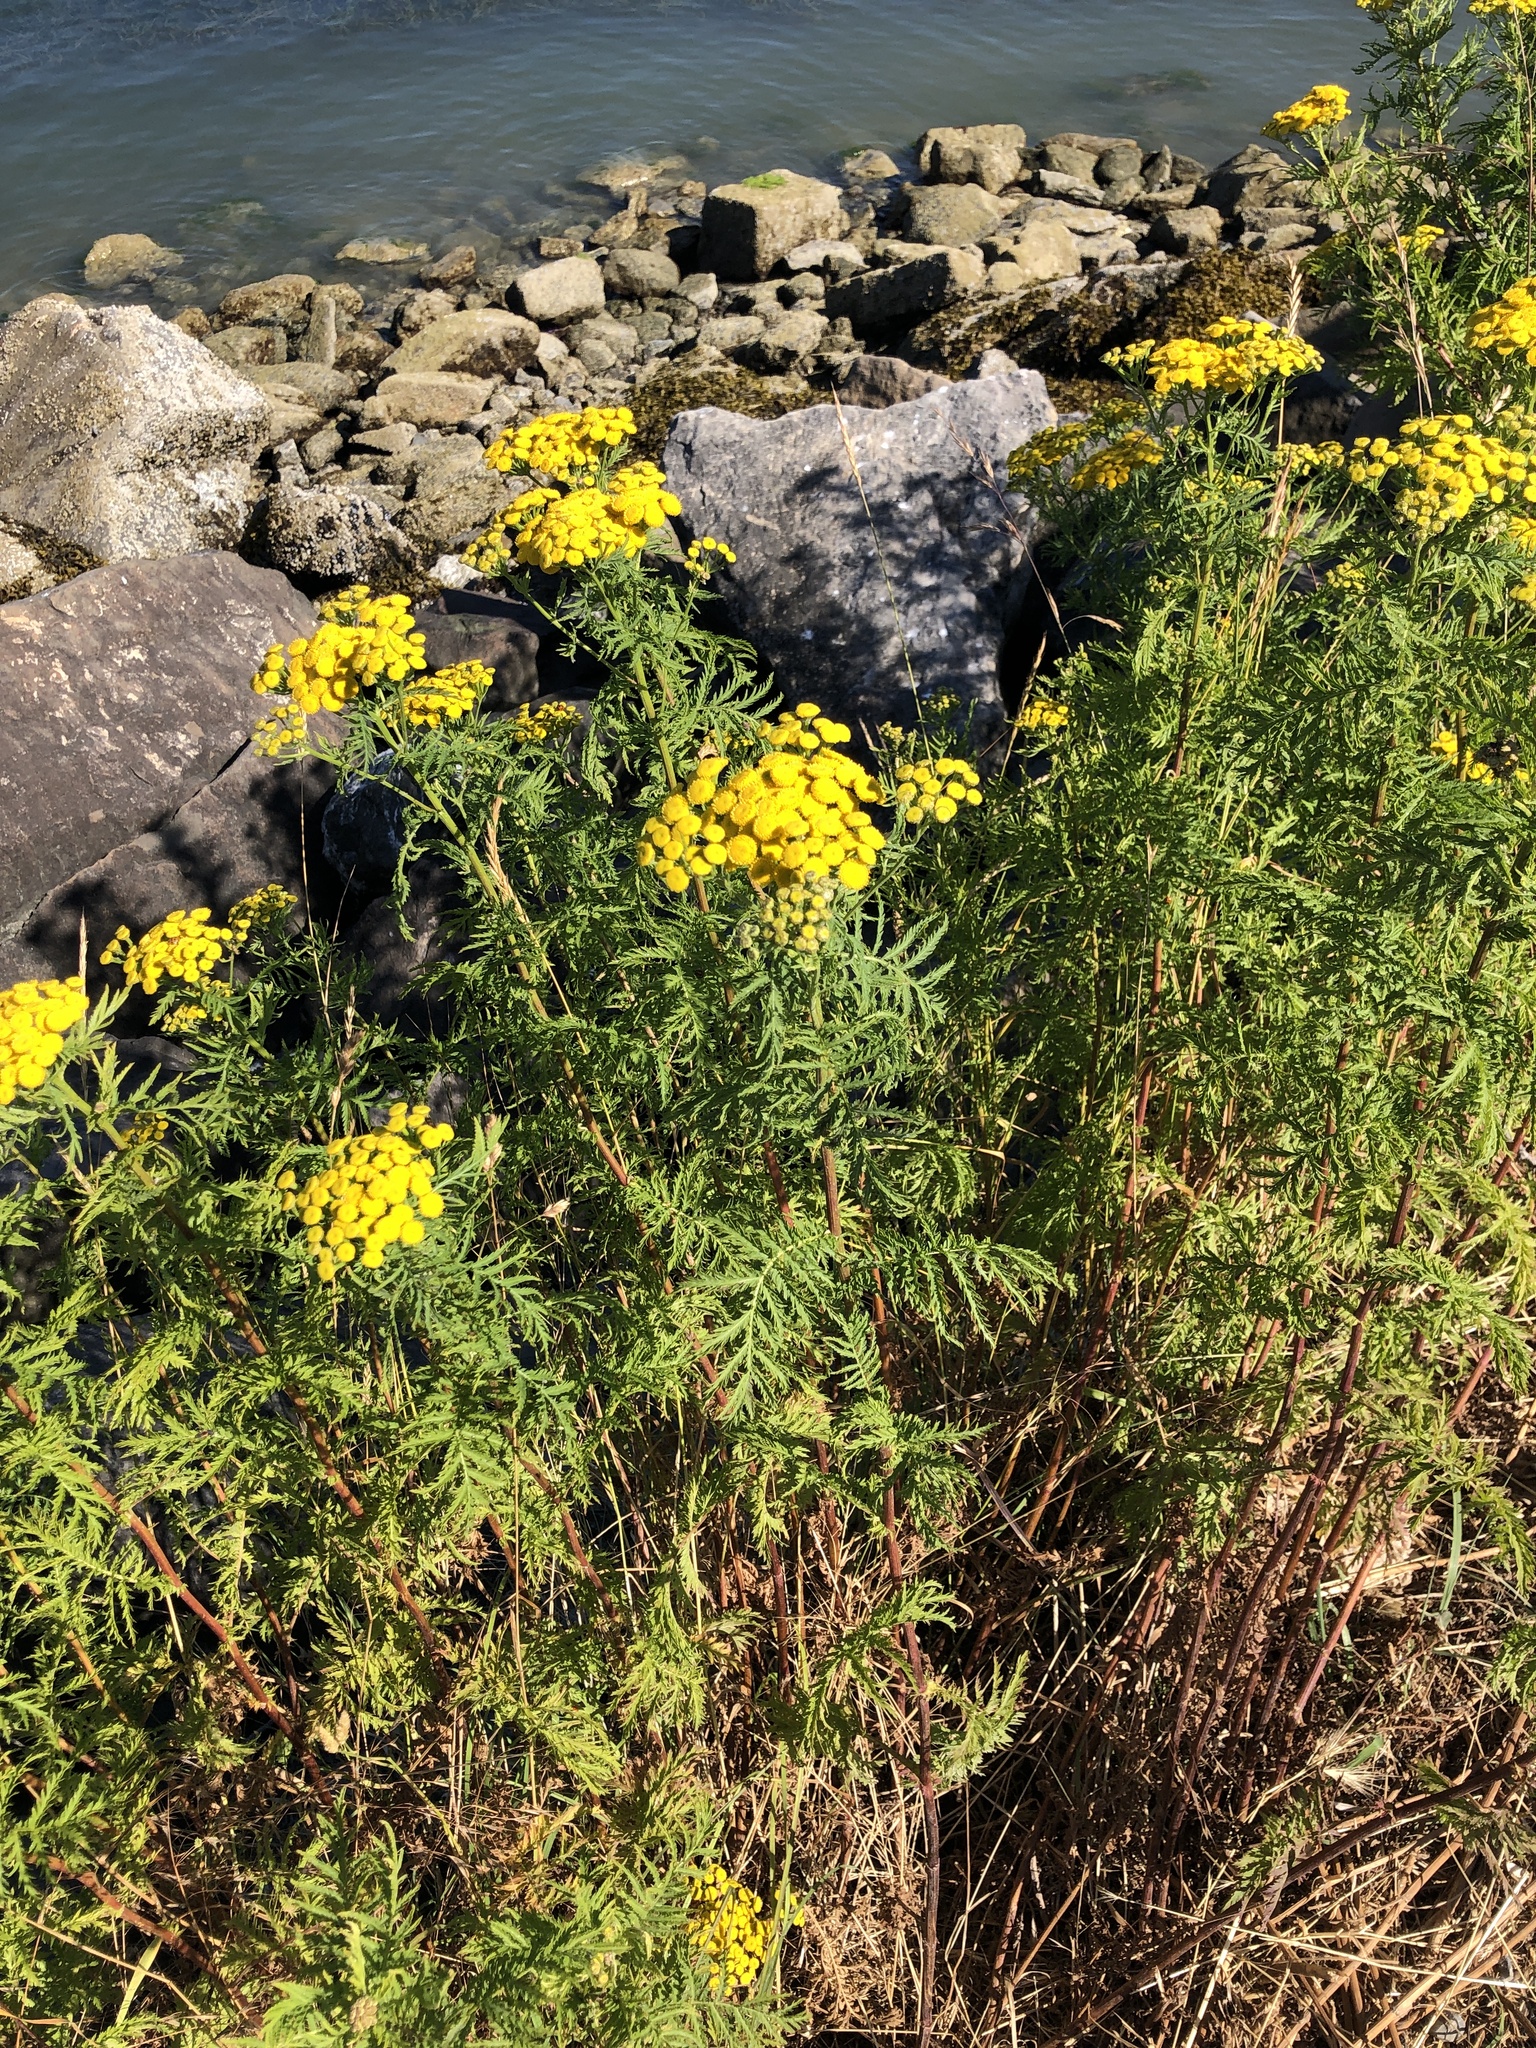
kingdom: Plantae
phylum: Tracheophyta
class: Magnoliopsida
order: Asterales
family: Asteraceae
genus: Tanacetum
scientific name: Tanacetum vulgare
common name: Common tansy
